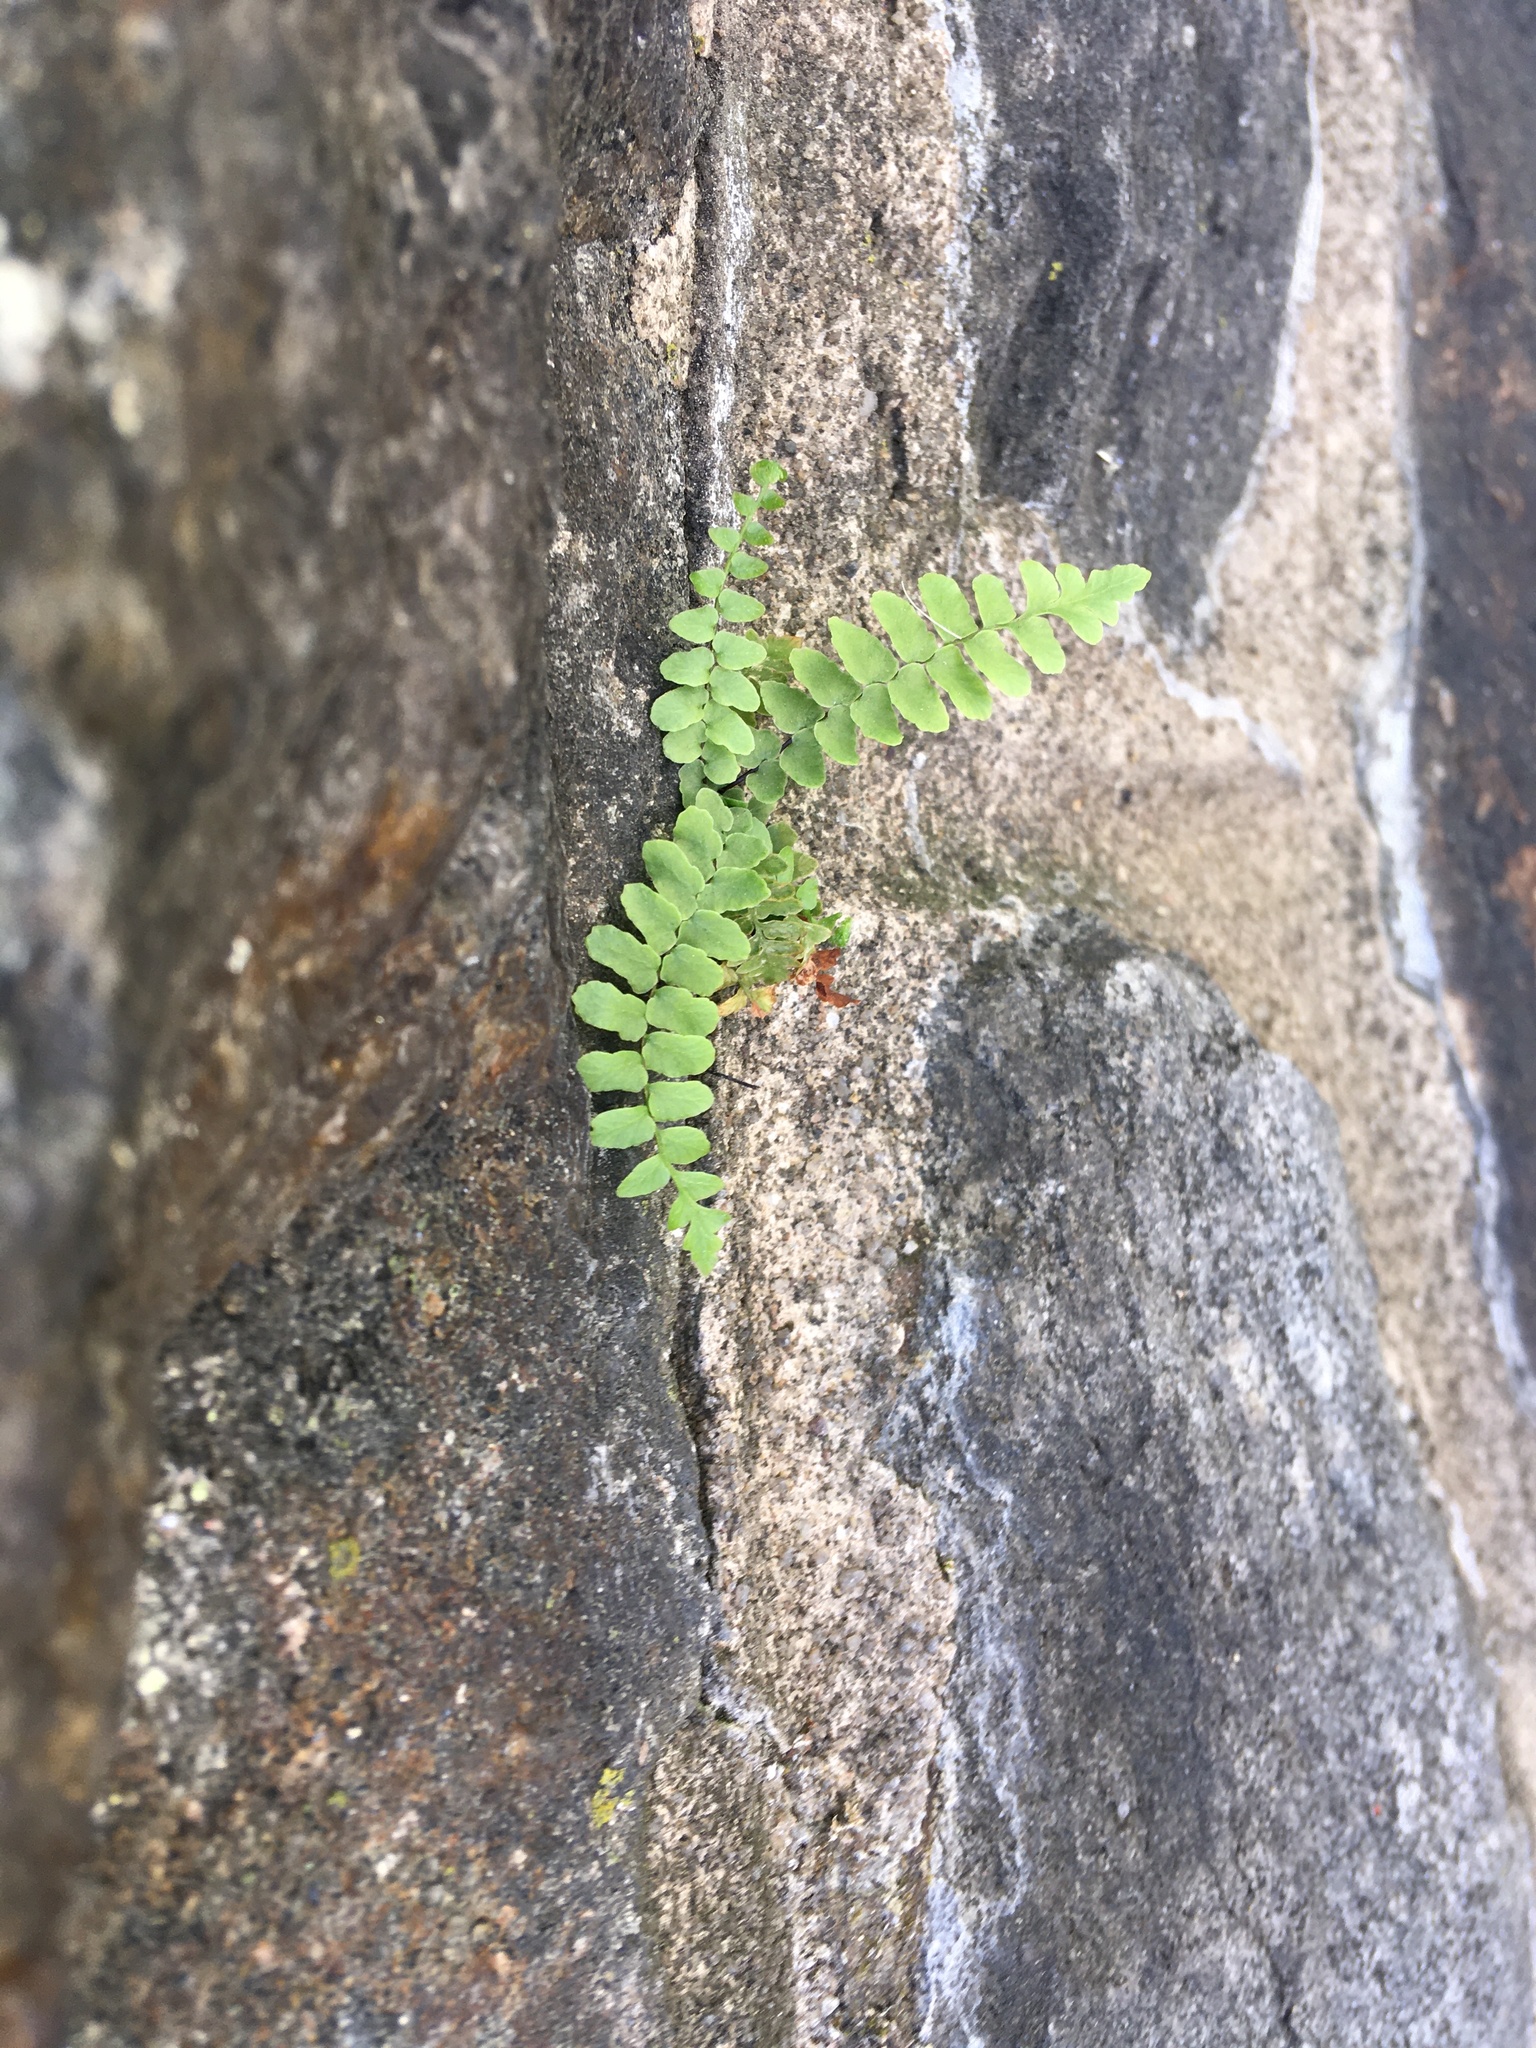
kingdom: Plantae
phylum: Tracheophyta
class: Polypodiopsida
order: Polypodiales
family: Aspleniaceae
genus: Asplenium
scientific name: Asplenium platyneuron
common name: Ebony spleenwort
